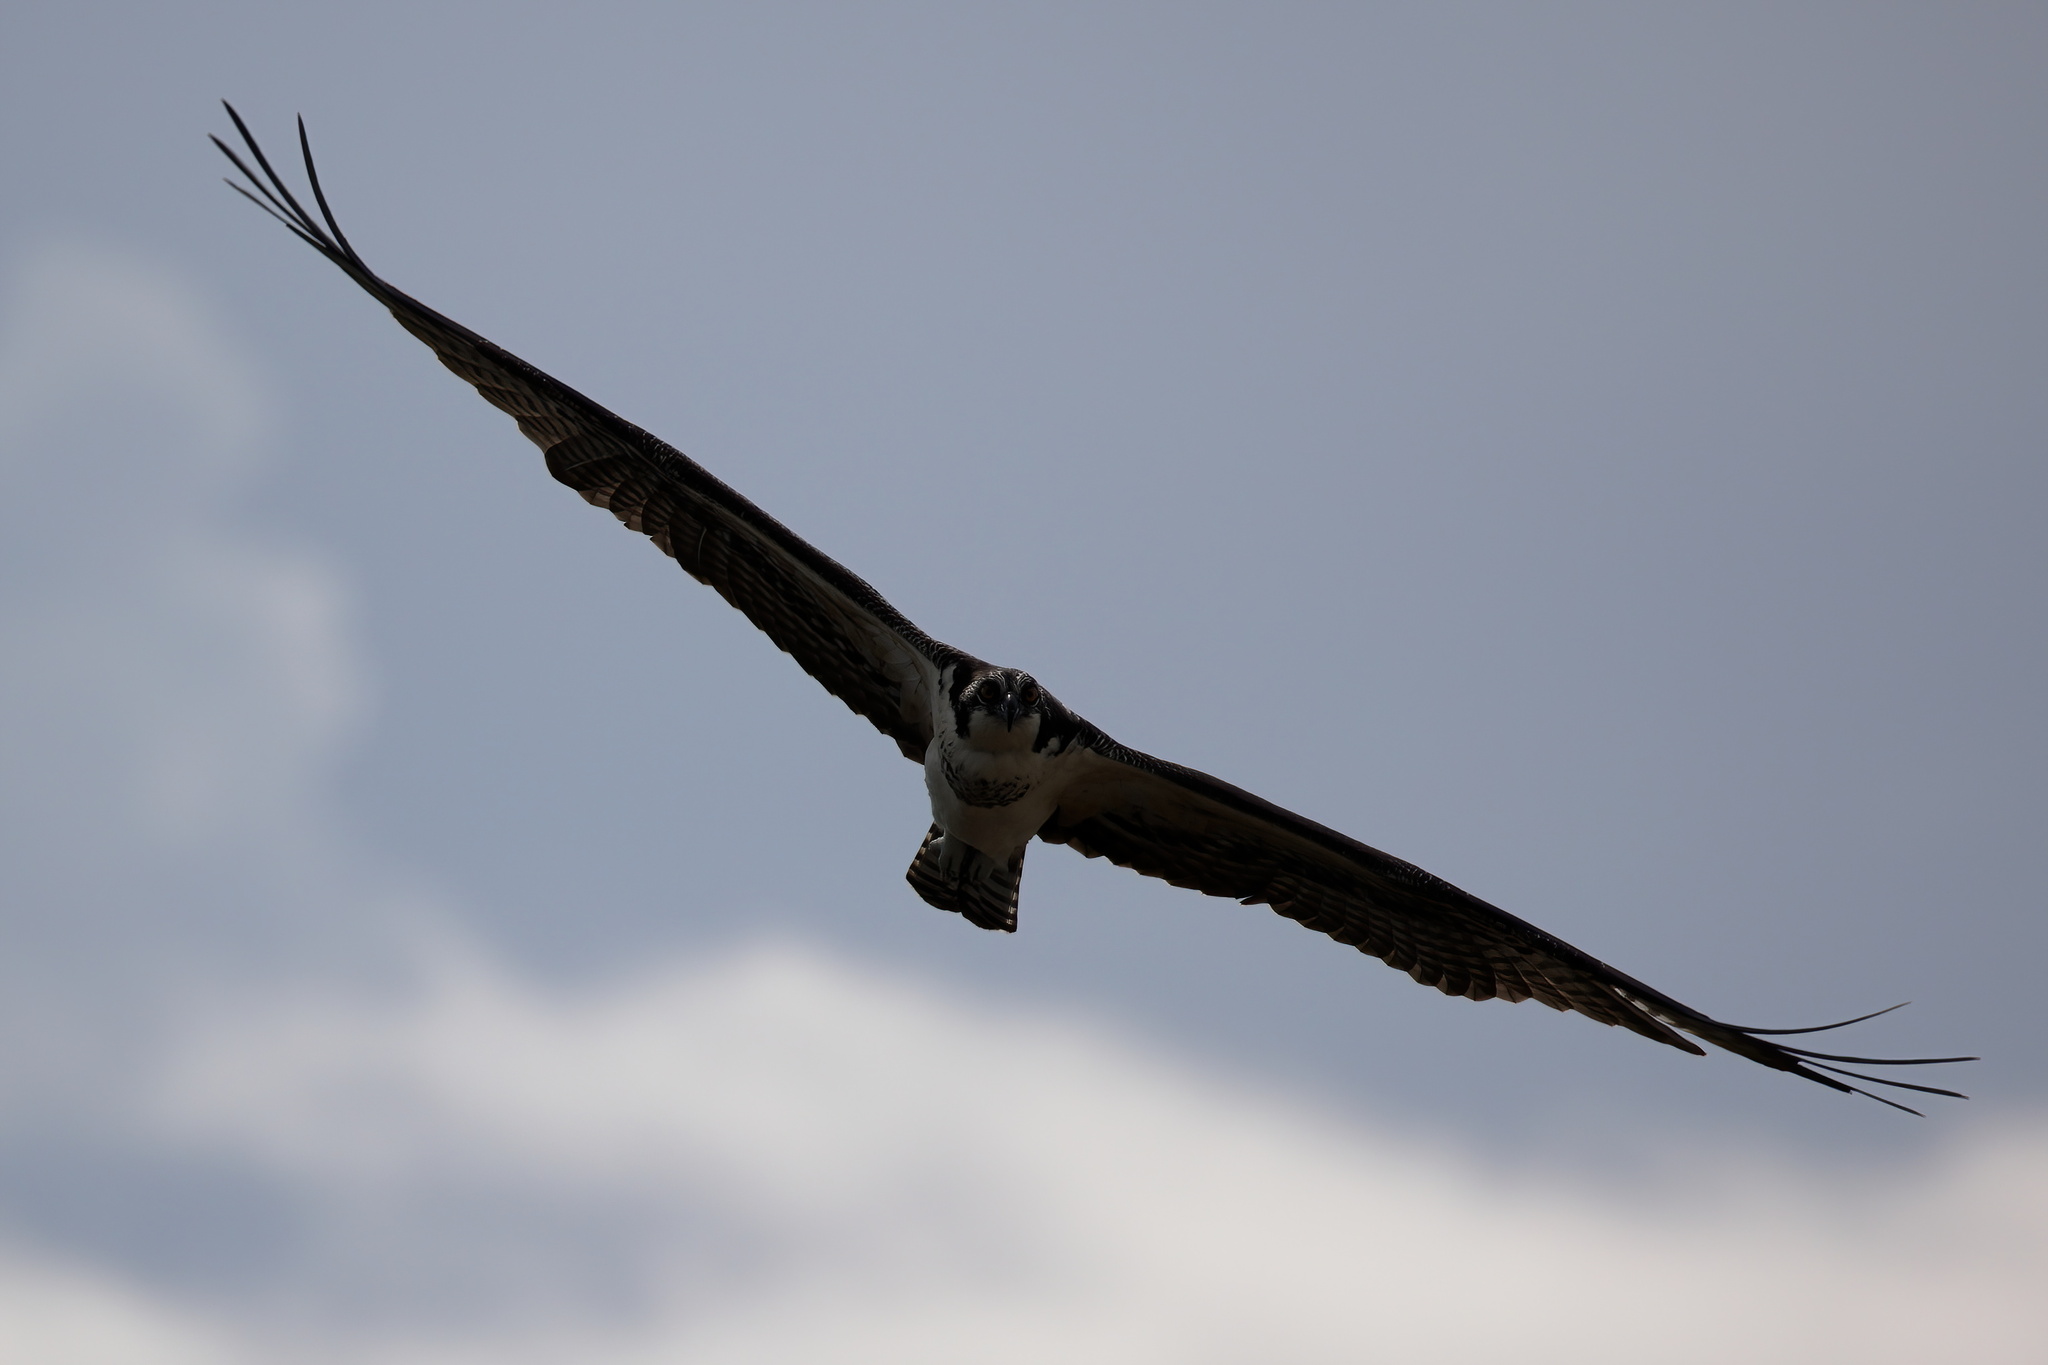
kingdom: Animalia
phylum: Chordata
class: Aves
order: Accipitriformes
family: Pandionidae
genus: Pandion
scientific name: Pandion haliaetus
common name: Osprey
